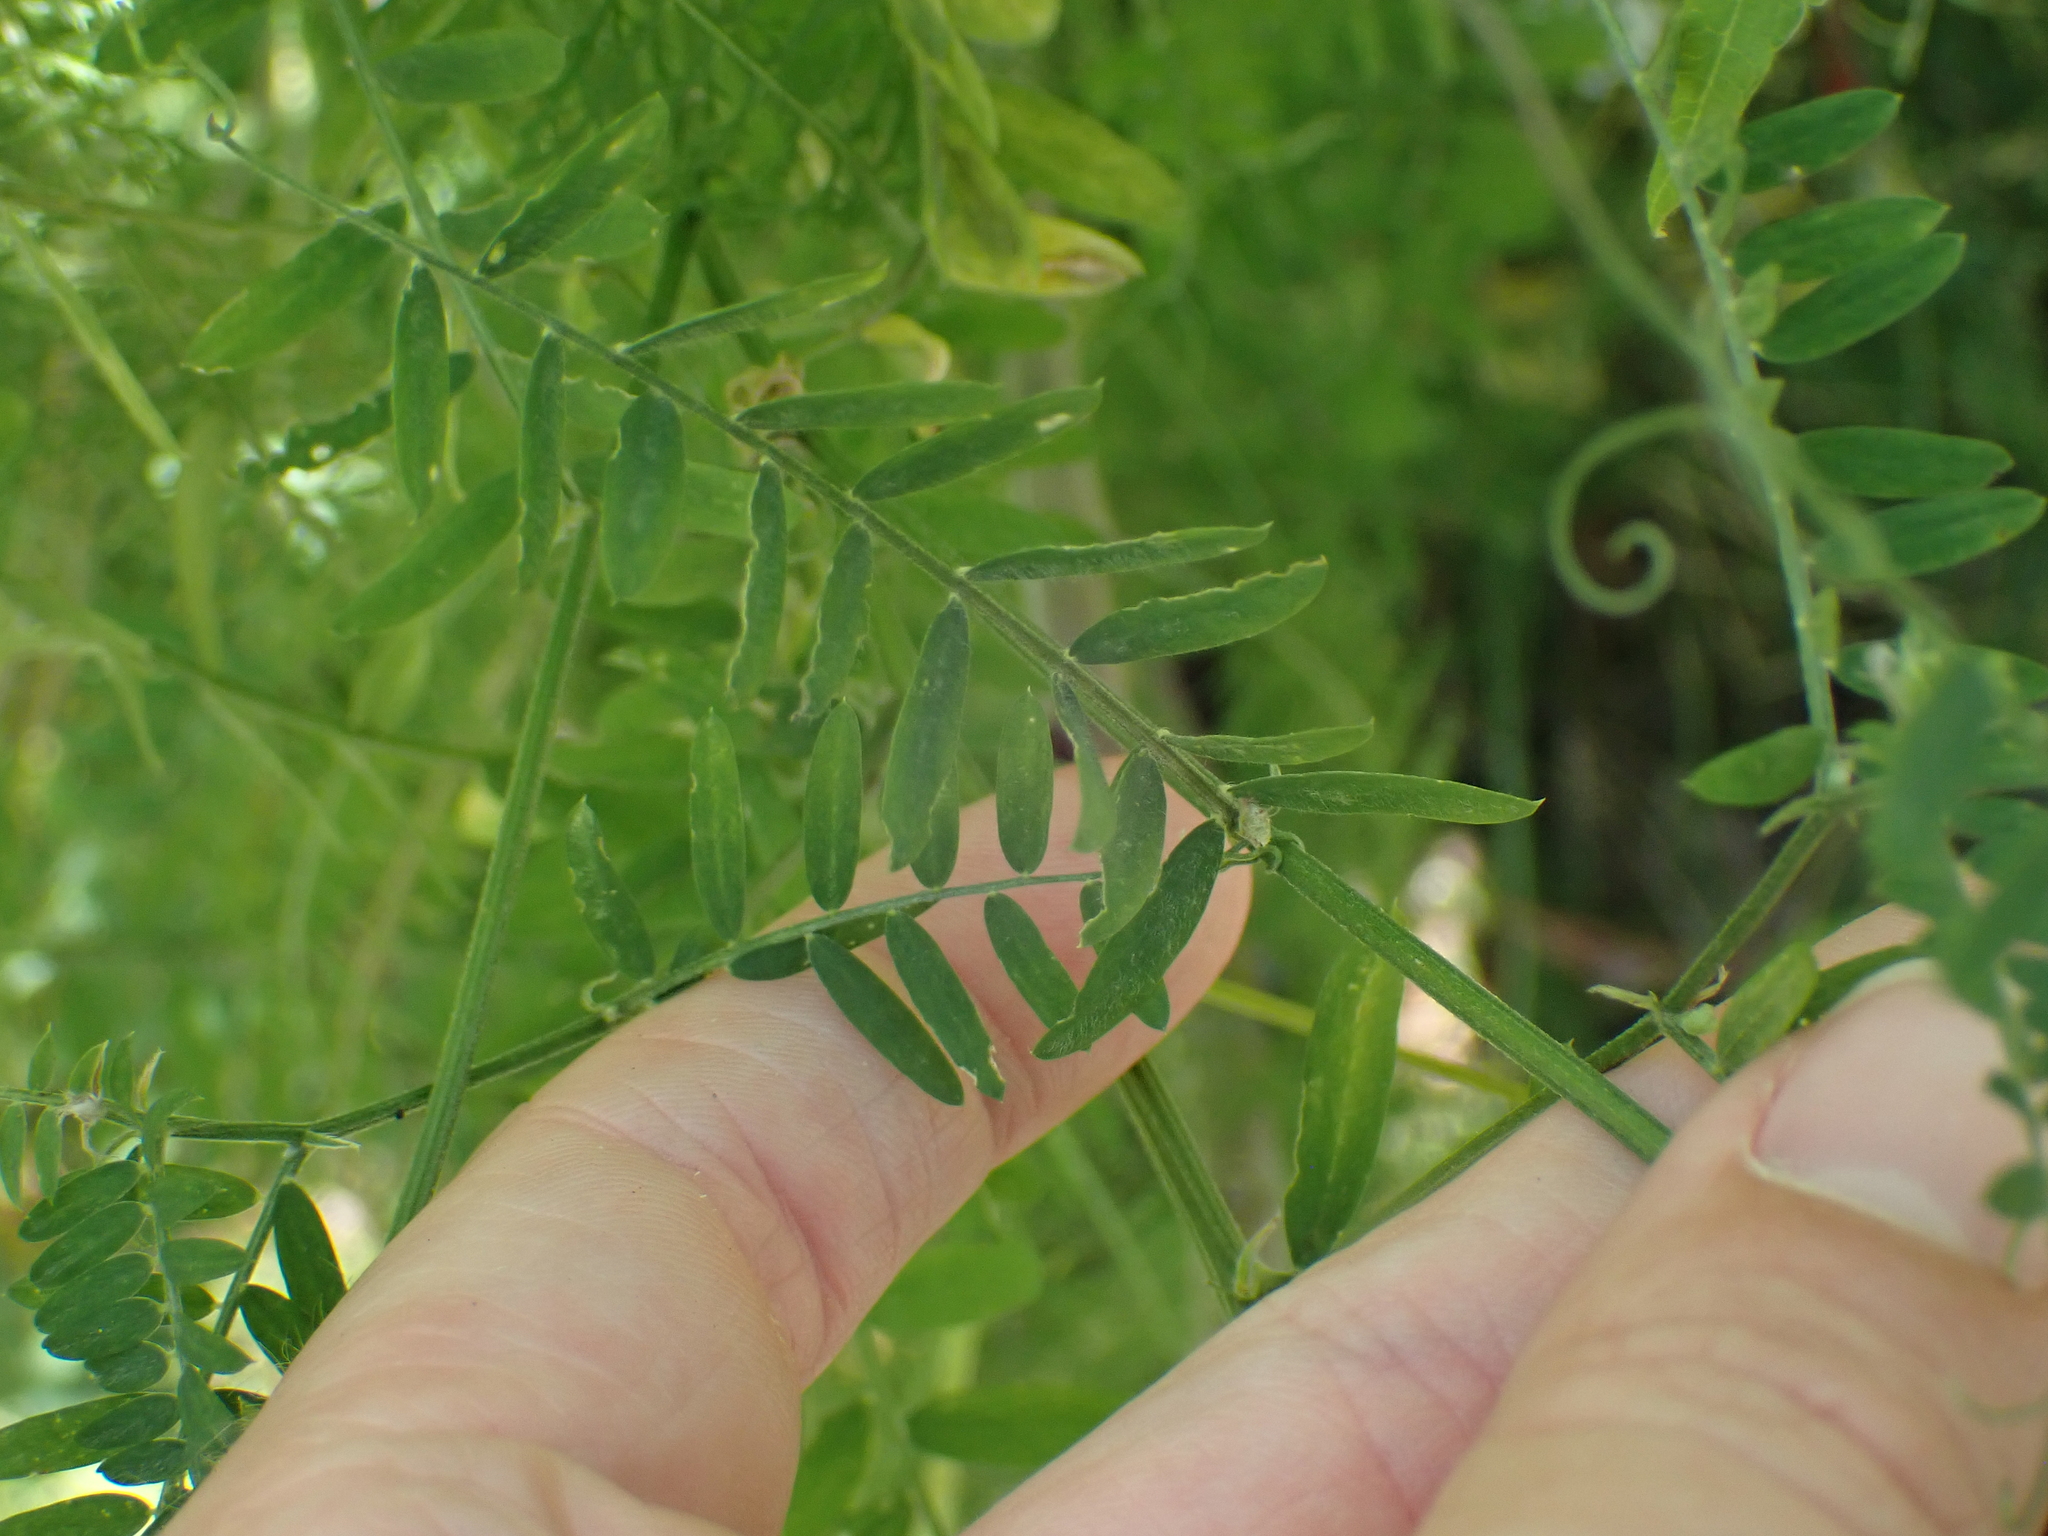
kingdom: Plantae
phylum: Tracheophyta
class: Magnoliopsida
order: Fabales
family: Fabaceae
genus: Vicia
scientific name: Vicia cracca
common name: Bird vetch
